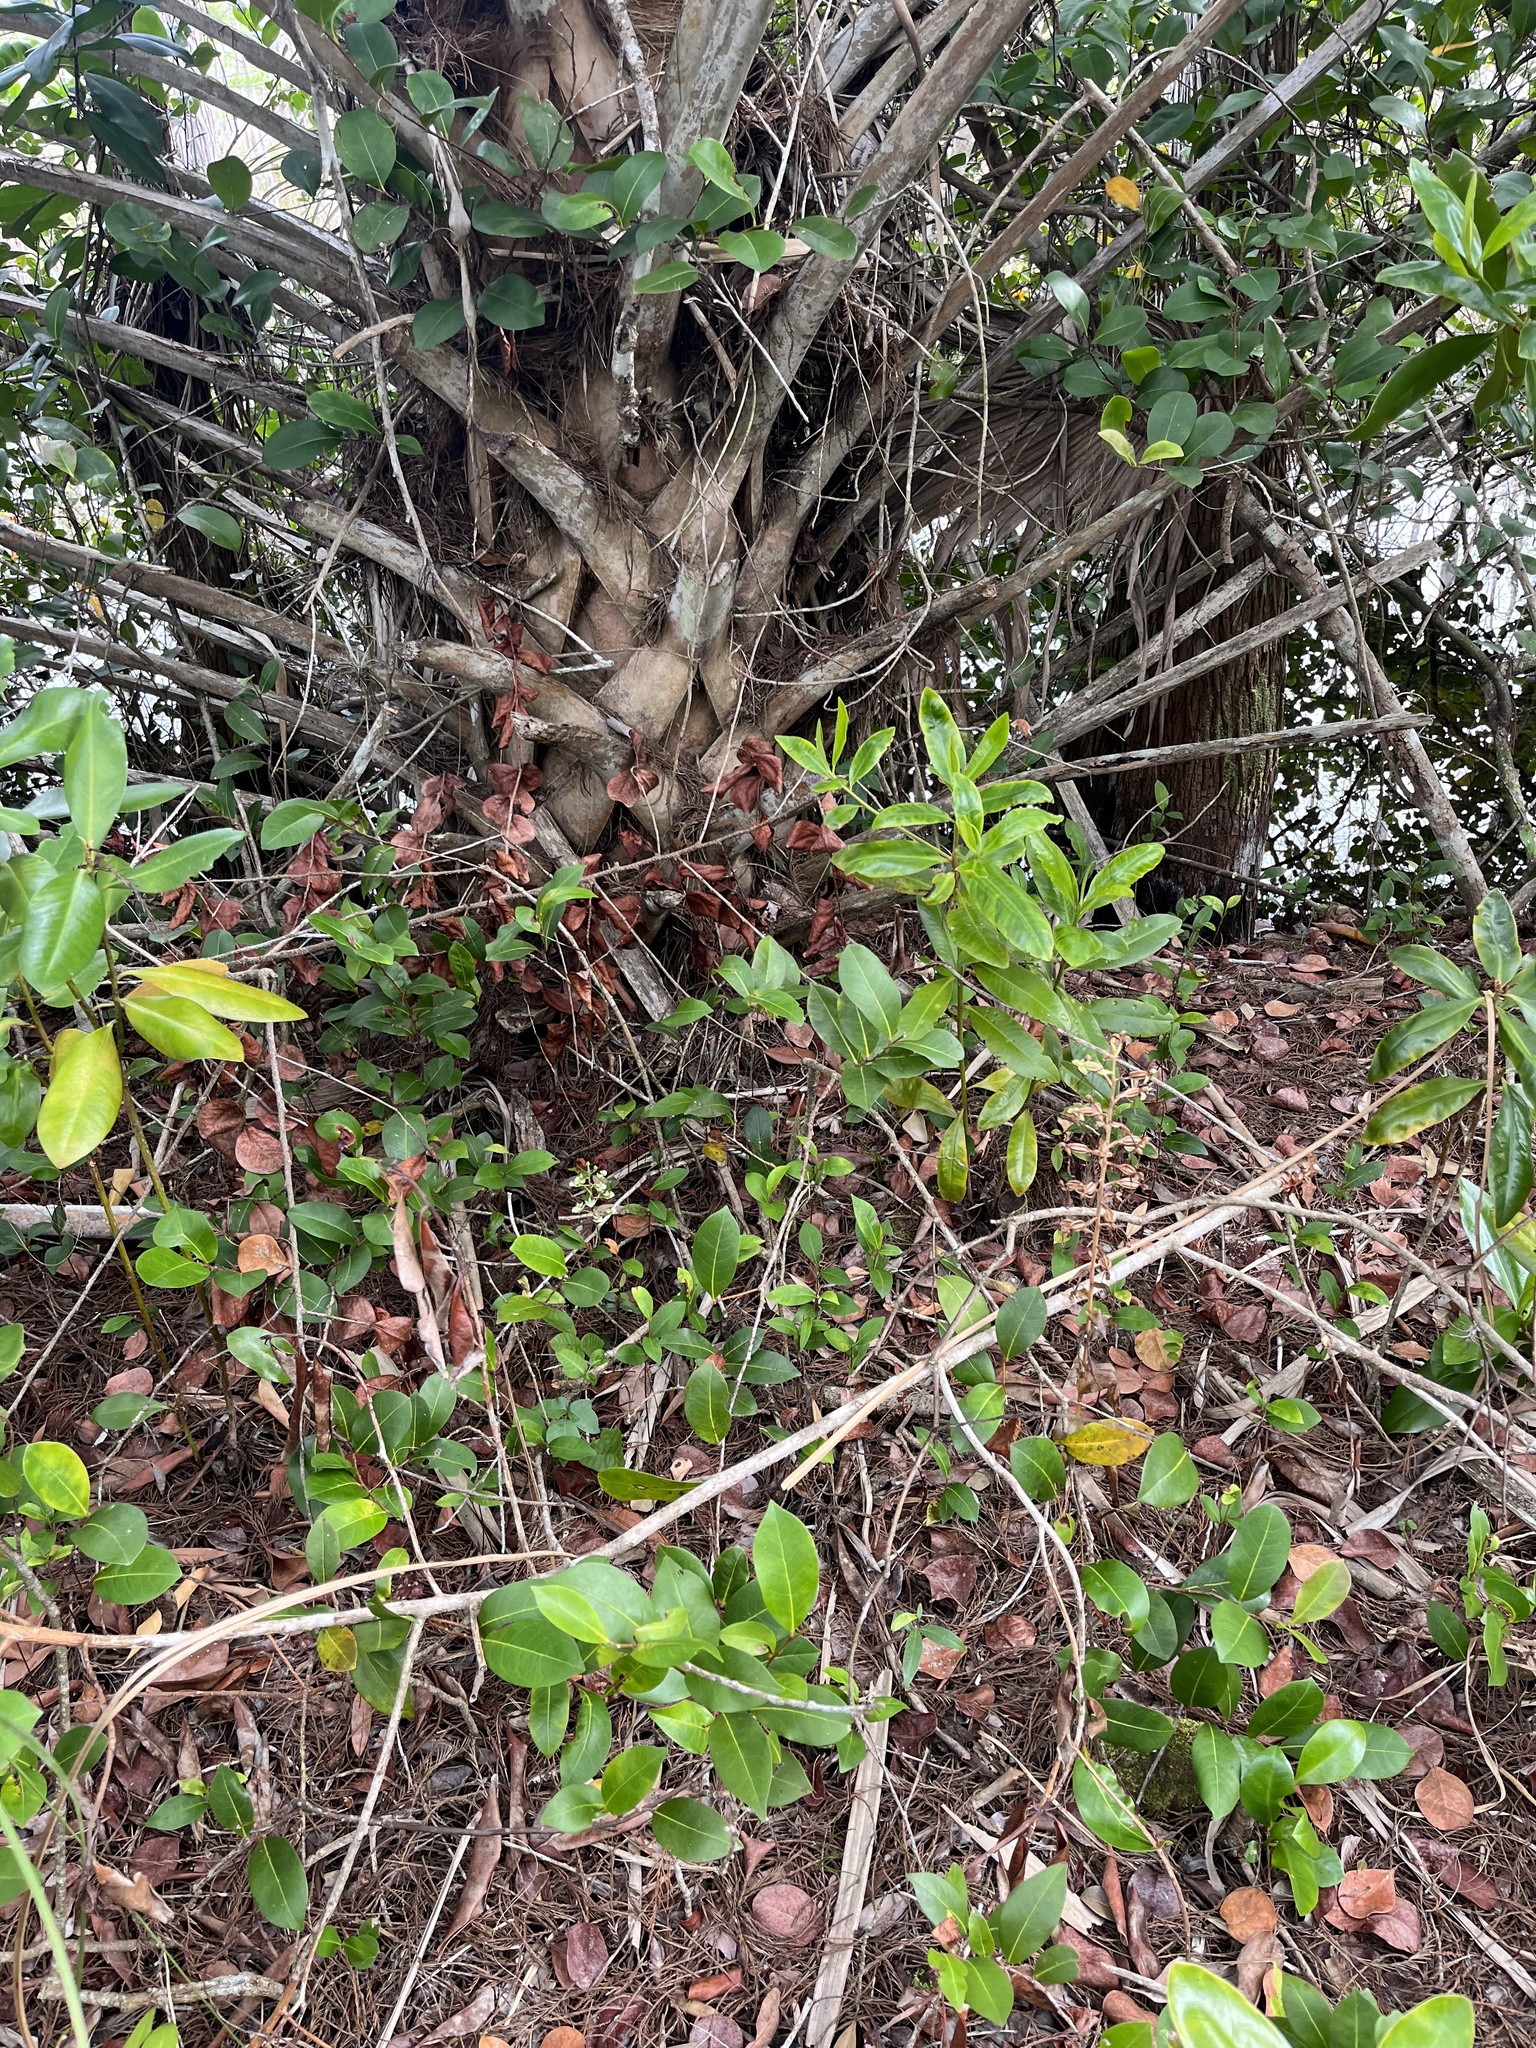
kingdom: Plantae
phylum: Tracheophyta
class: Liliopsida
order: Asparagales
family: Orchidaceae
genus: Ponthieva
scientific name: Ponthieva racemosa
